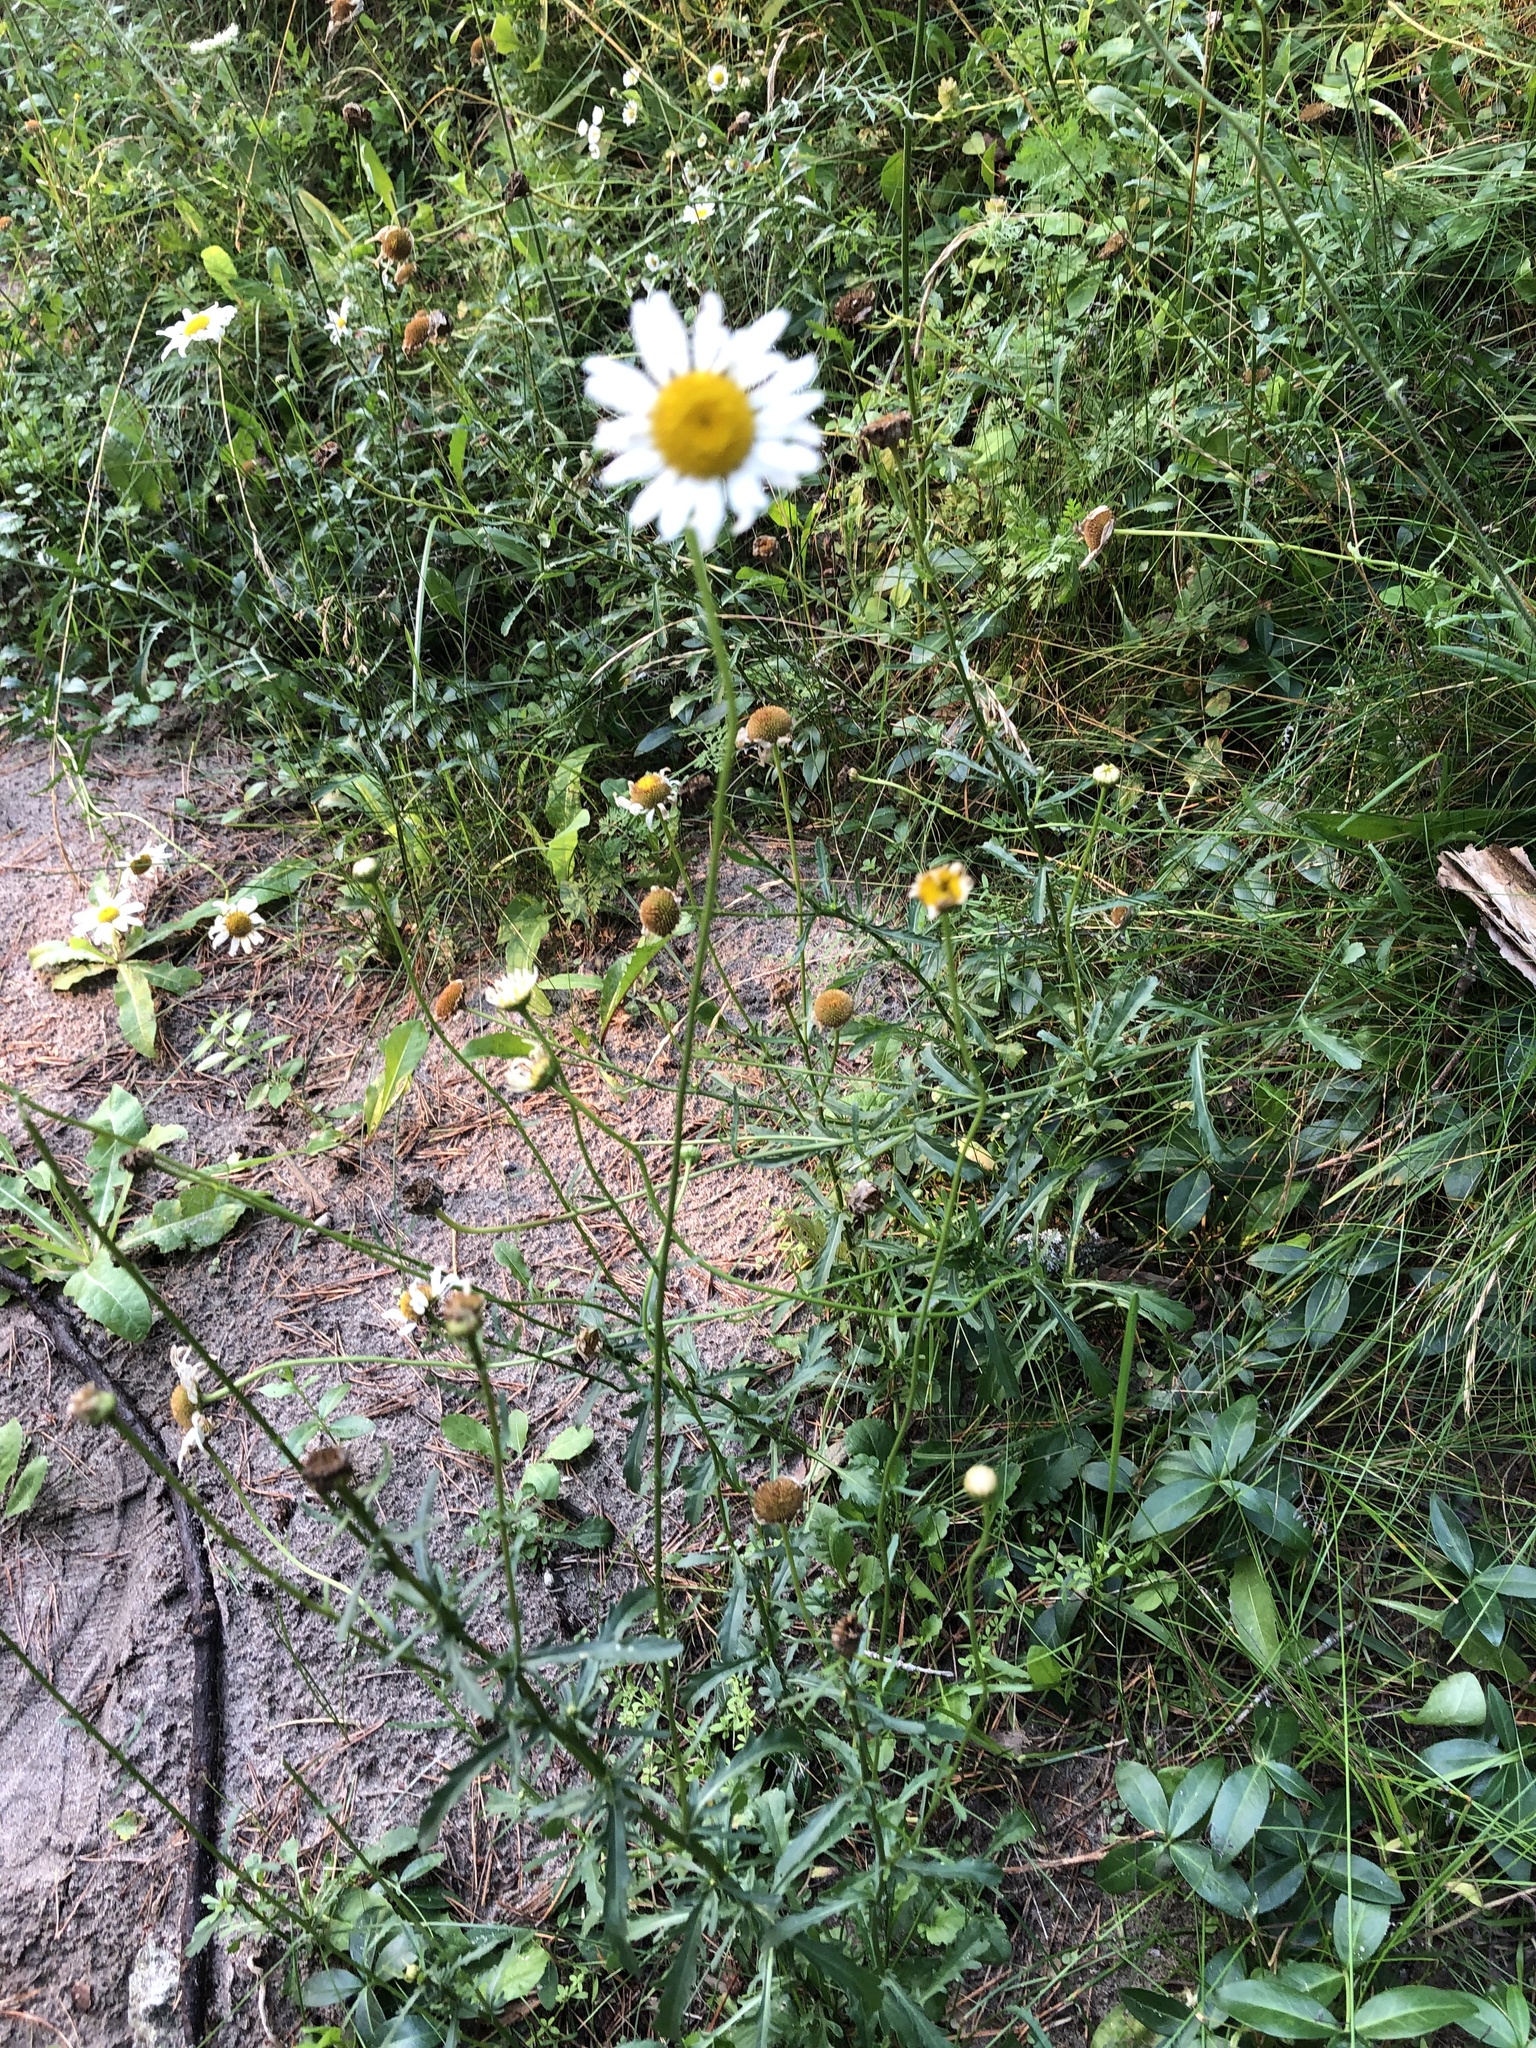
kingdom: Plantae
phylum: Tracheophyta
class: Magnoliopsida
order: Asterales
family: Asteraceae
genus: Leucanthemum
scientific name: Leucanthemum vulgare
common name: Oxeye daisy
